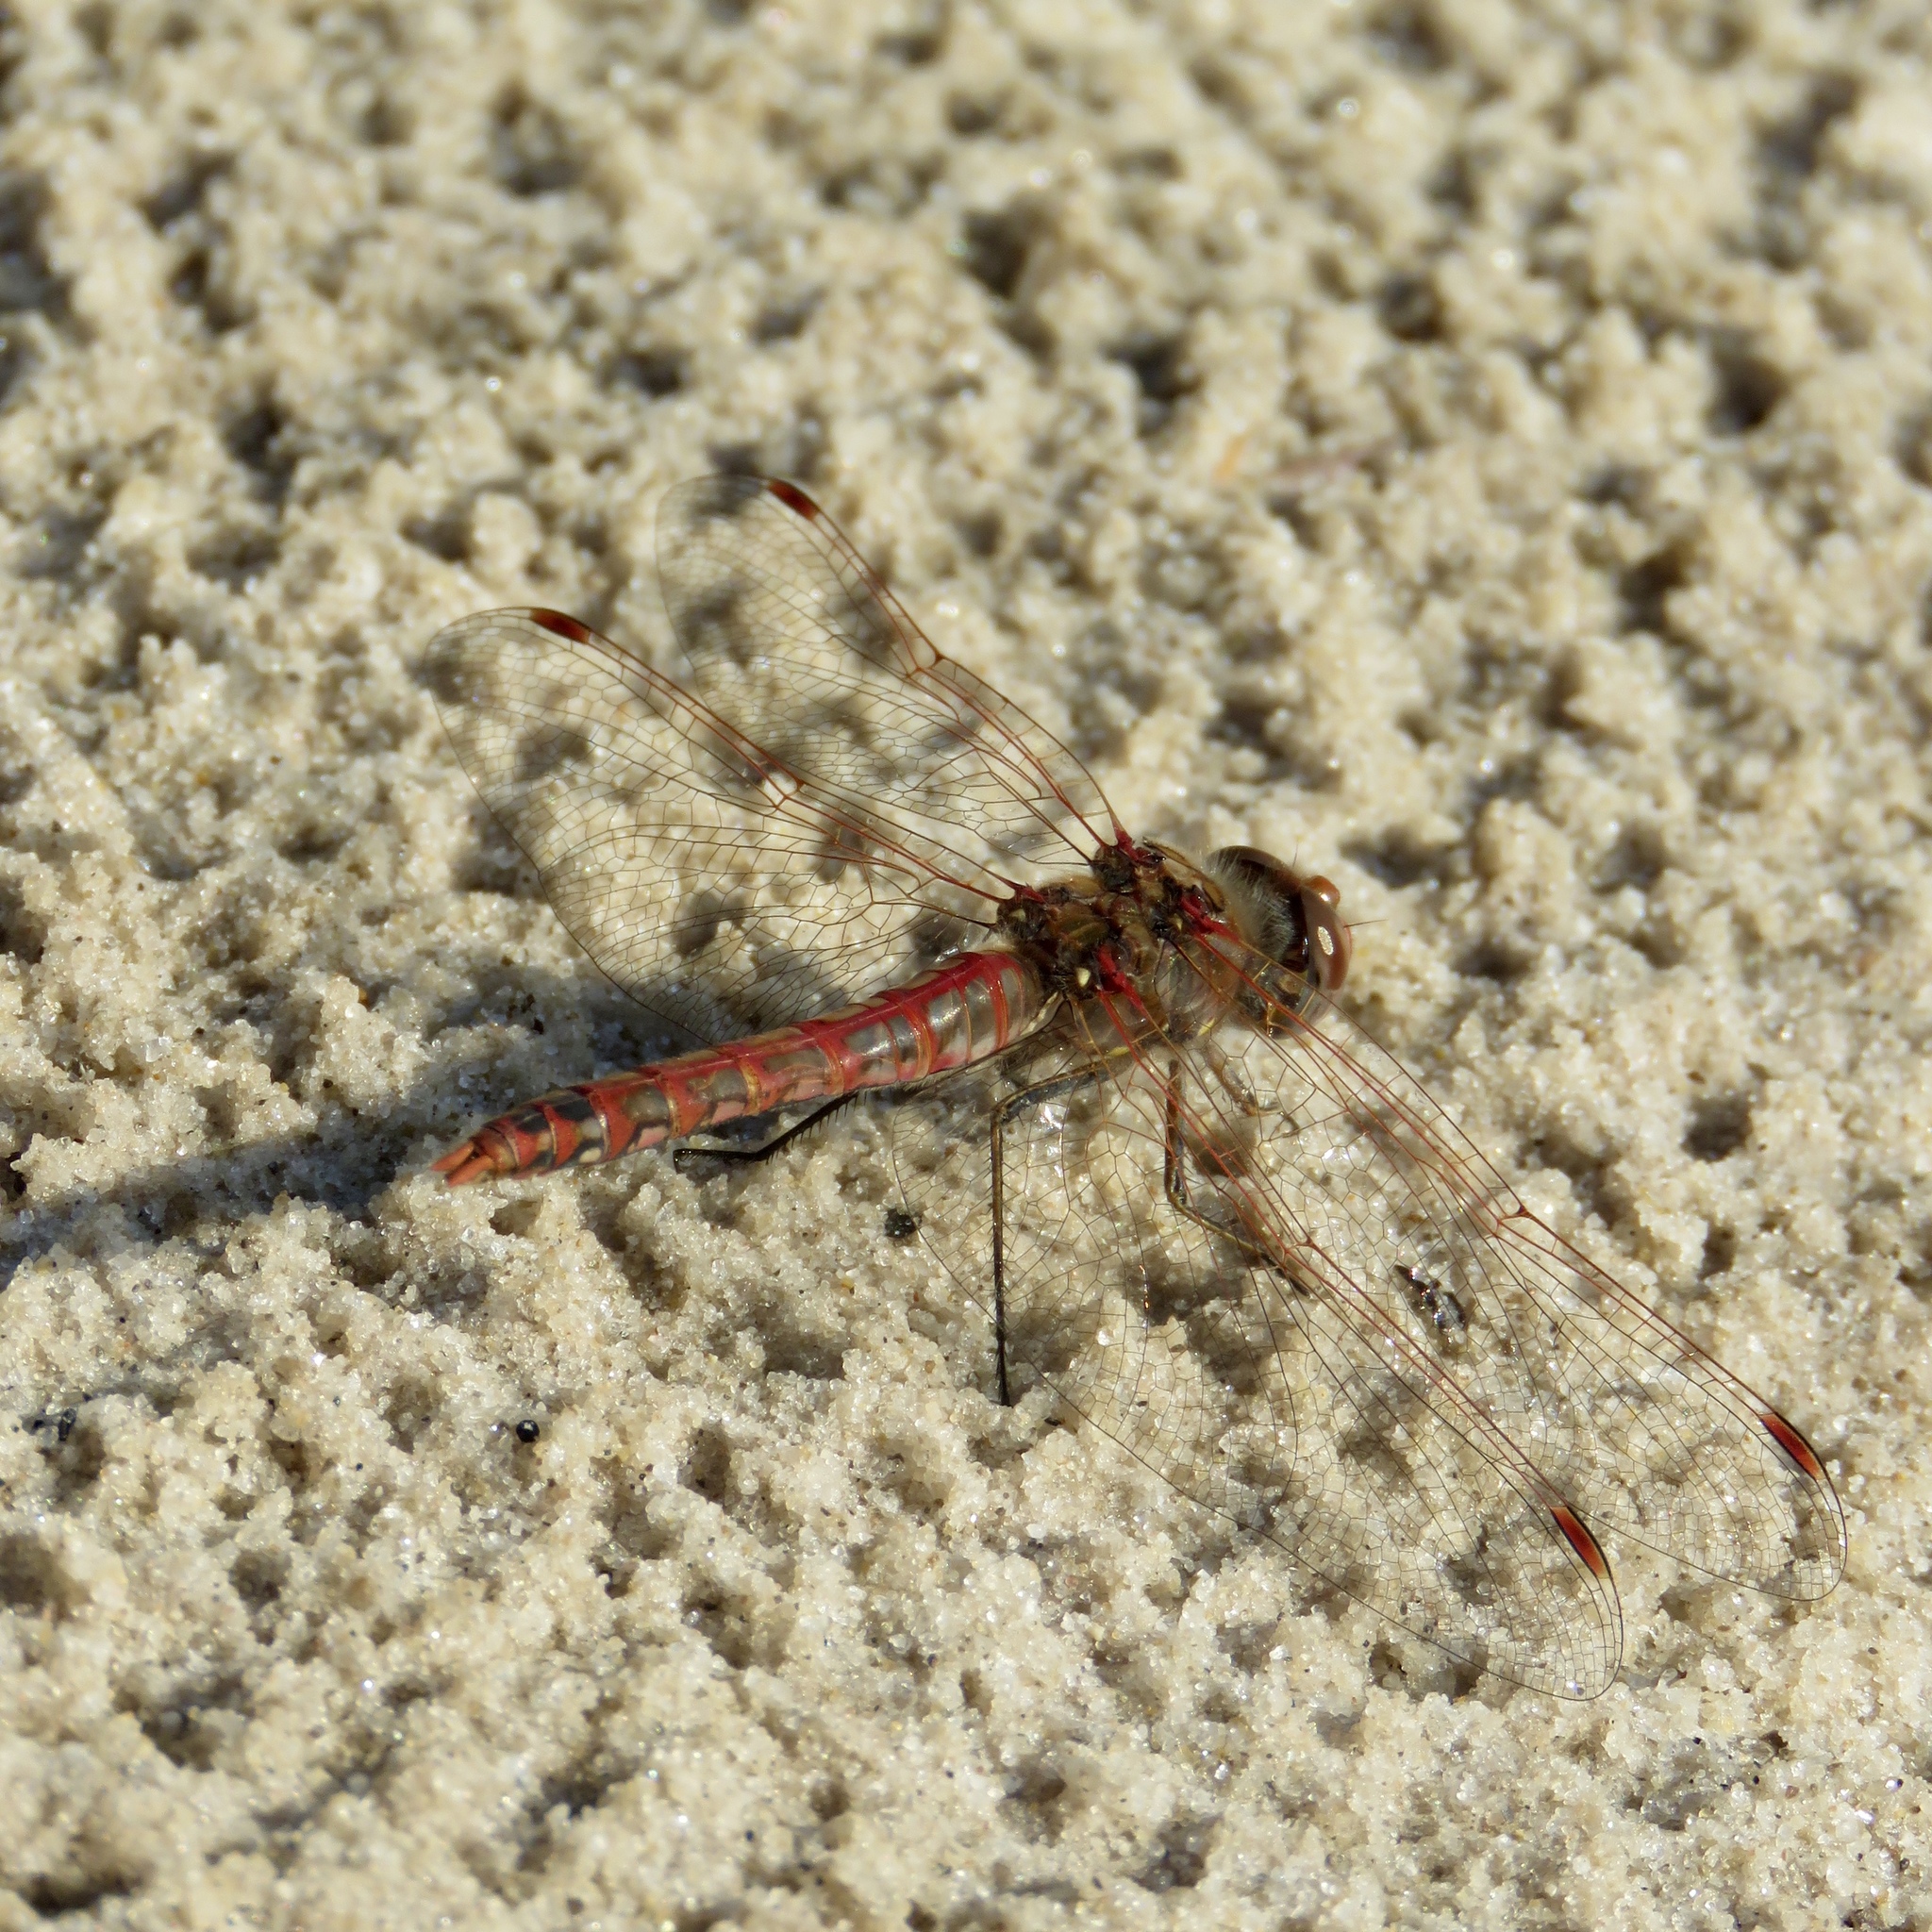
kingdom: Animalia
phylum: Arthropoda
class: Insecta
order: Odonata
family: Libellulidae
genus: Sympetrum
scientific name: Sympetrum corruptum
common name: Variegated meadowhawk
